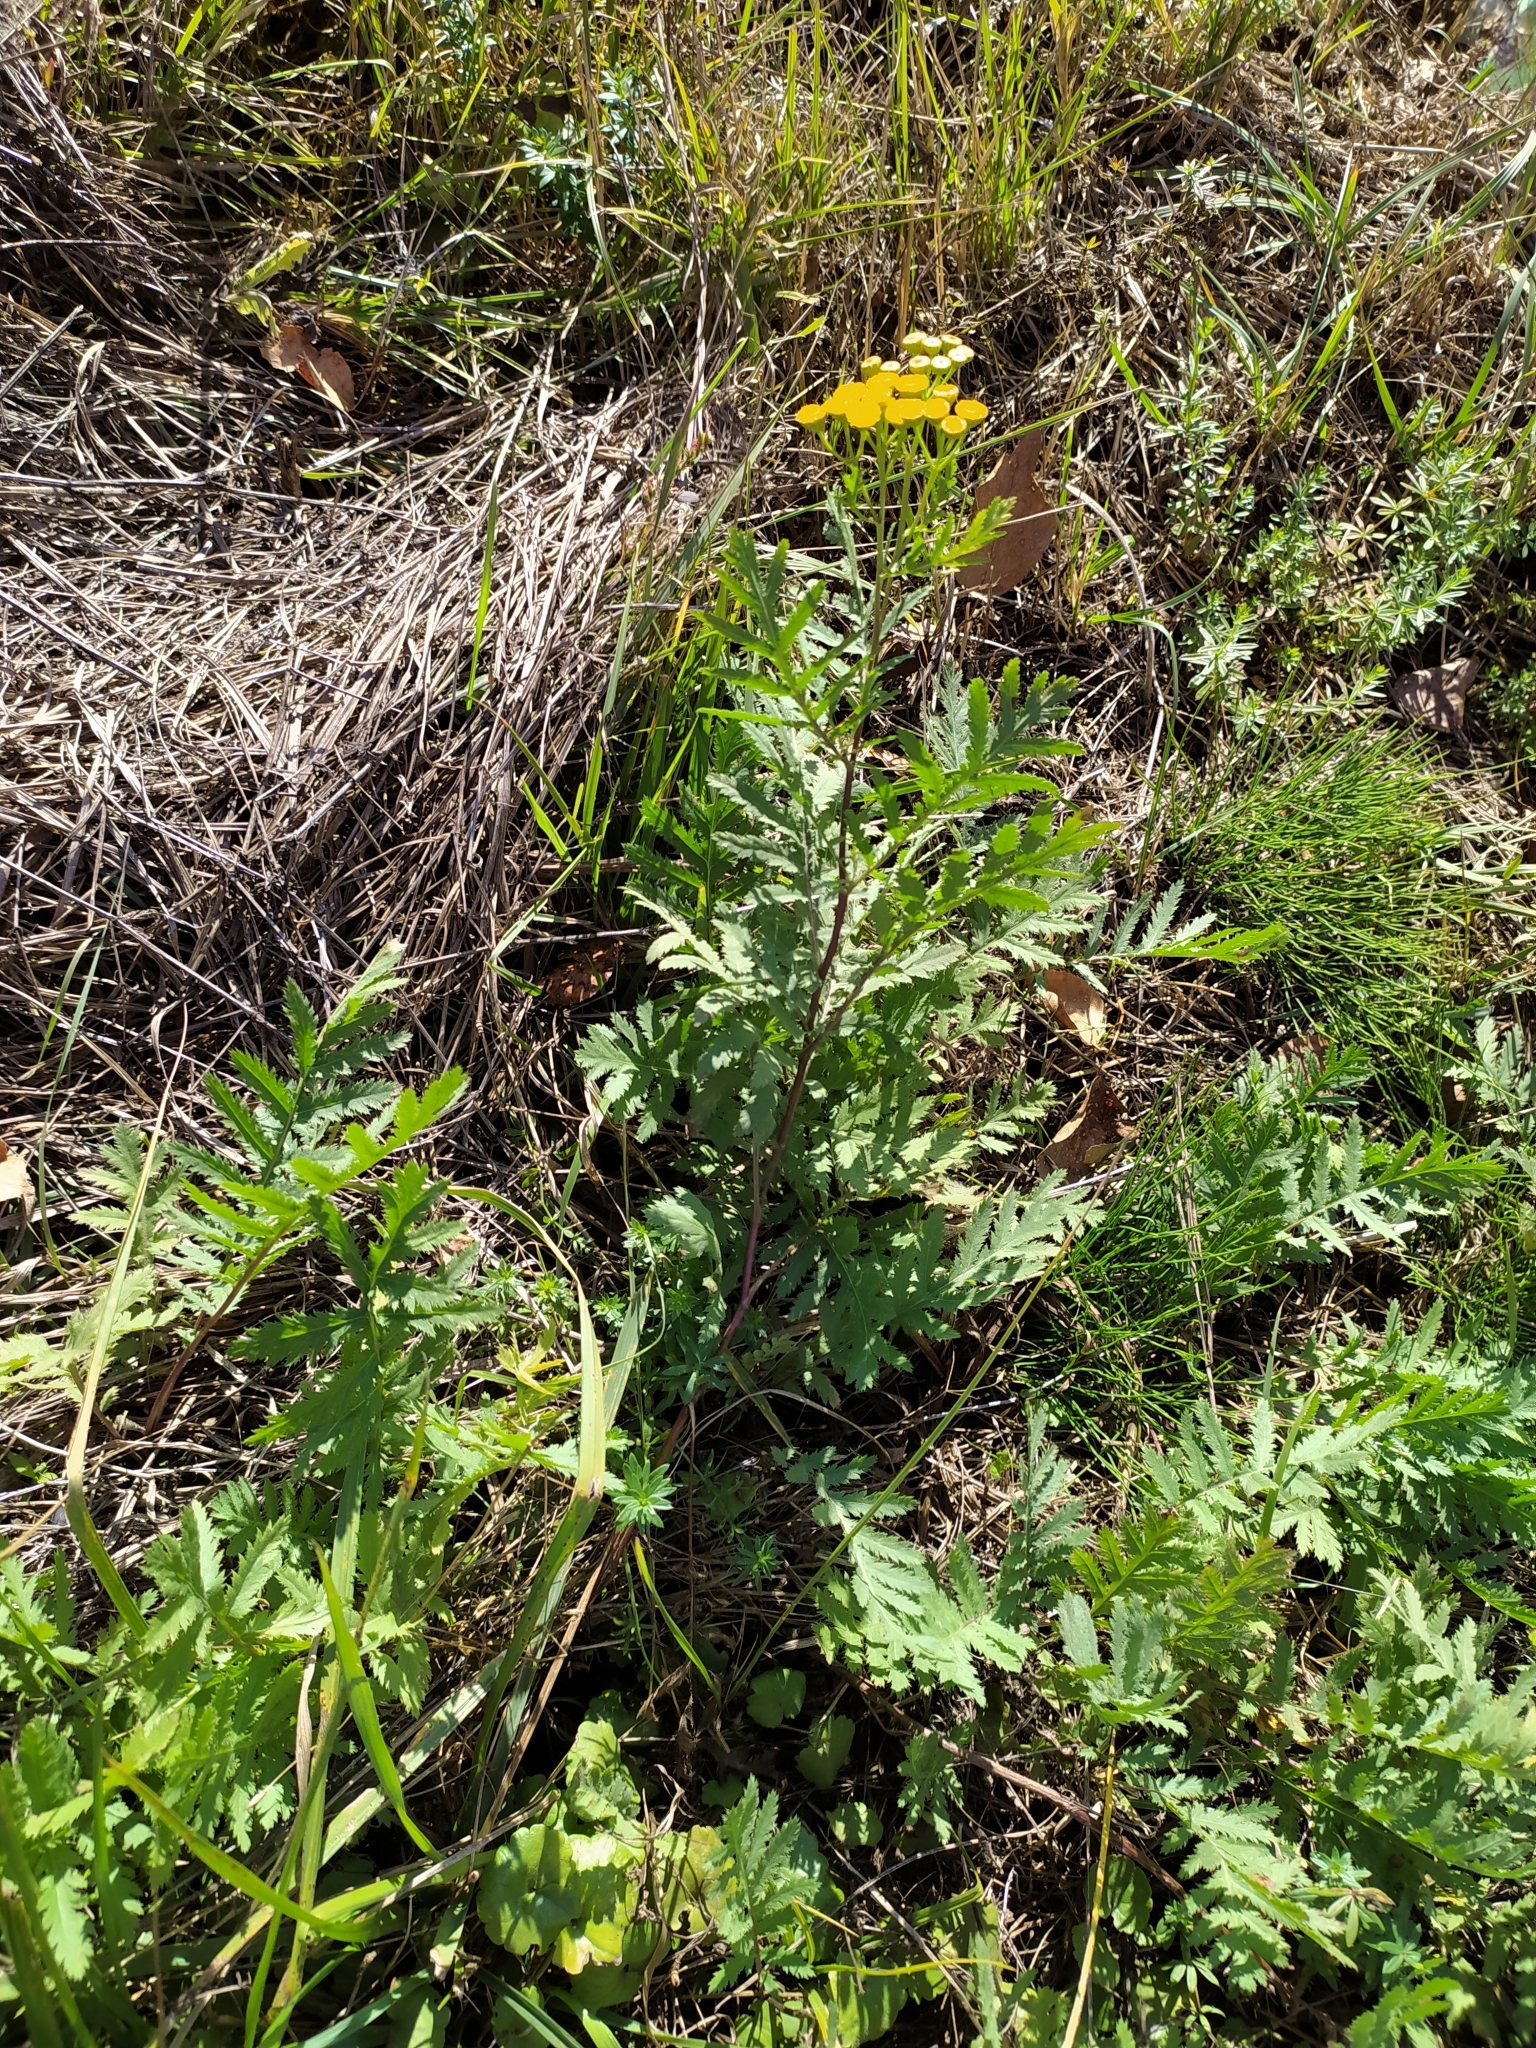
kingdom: Plantae
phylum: Tracheophyta
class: Magnoliopsida
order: Asterales
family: Asteraceae
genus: Tanacetum
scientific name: Tanacetum vulgare
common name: Common tansy
